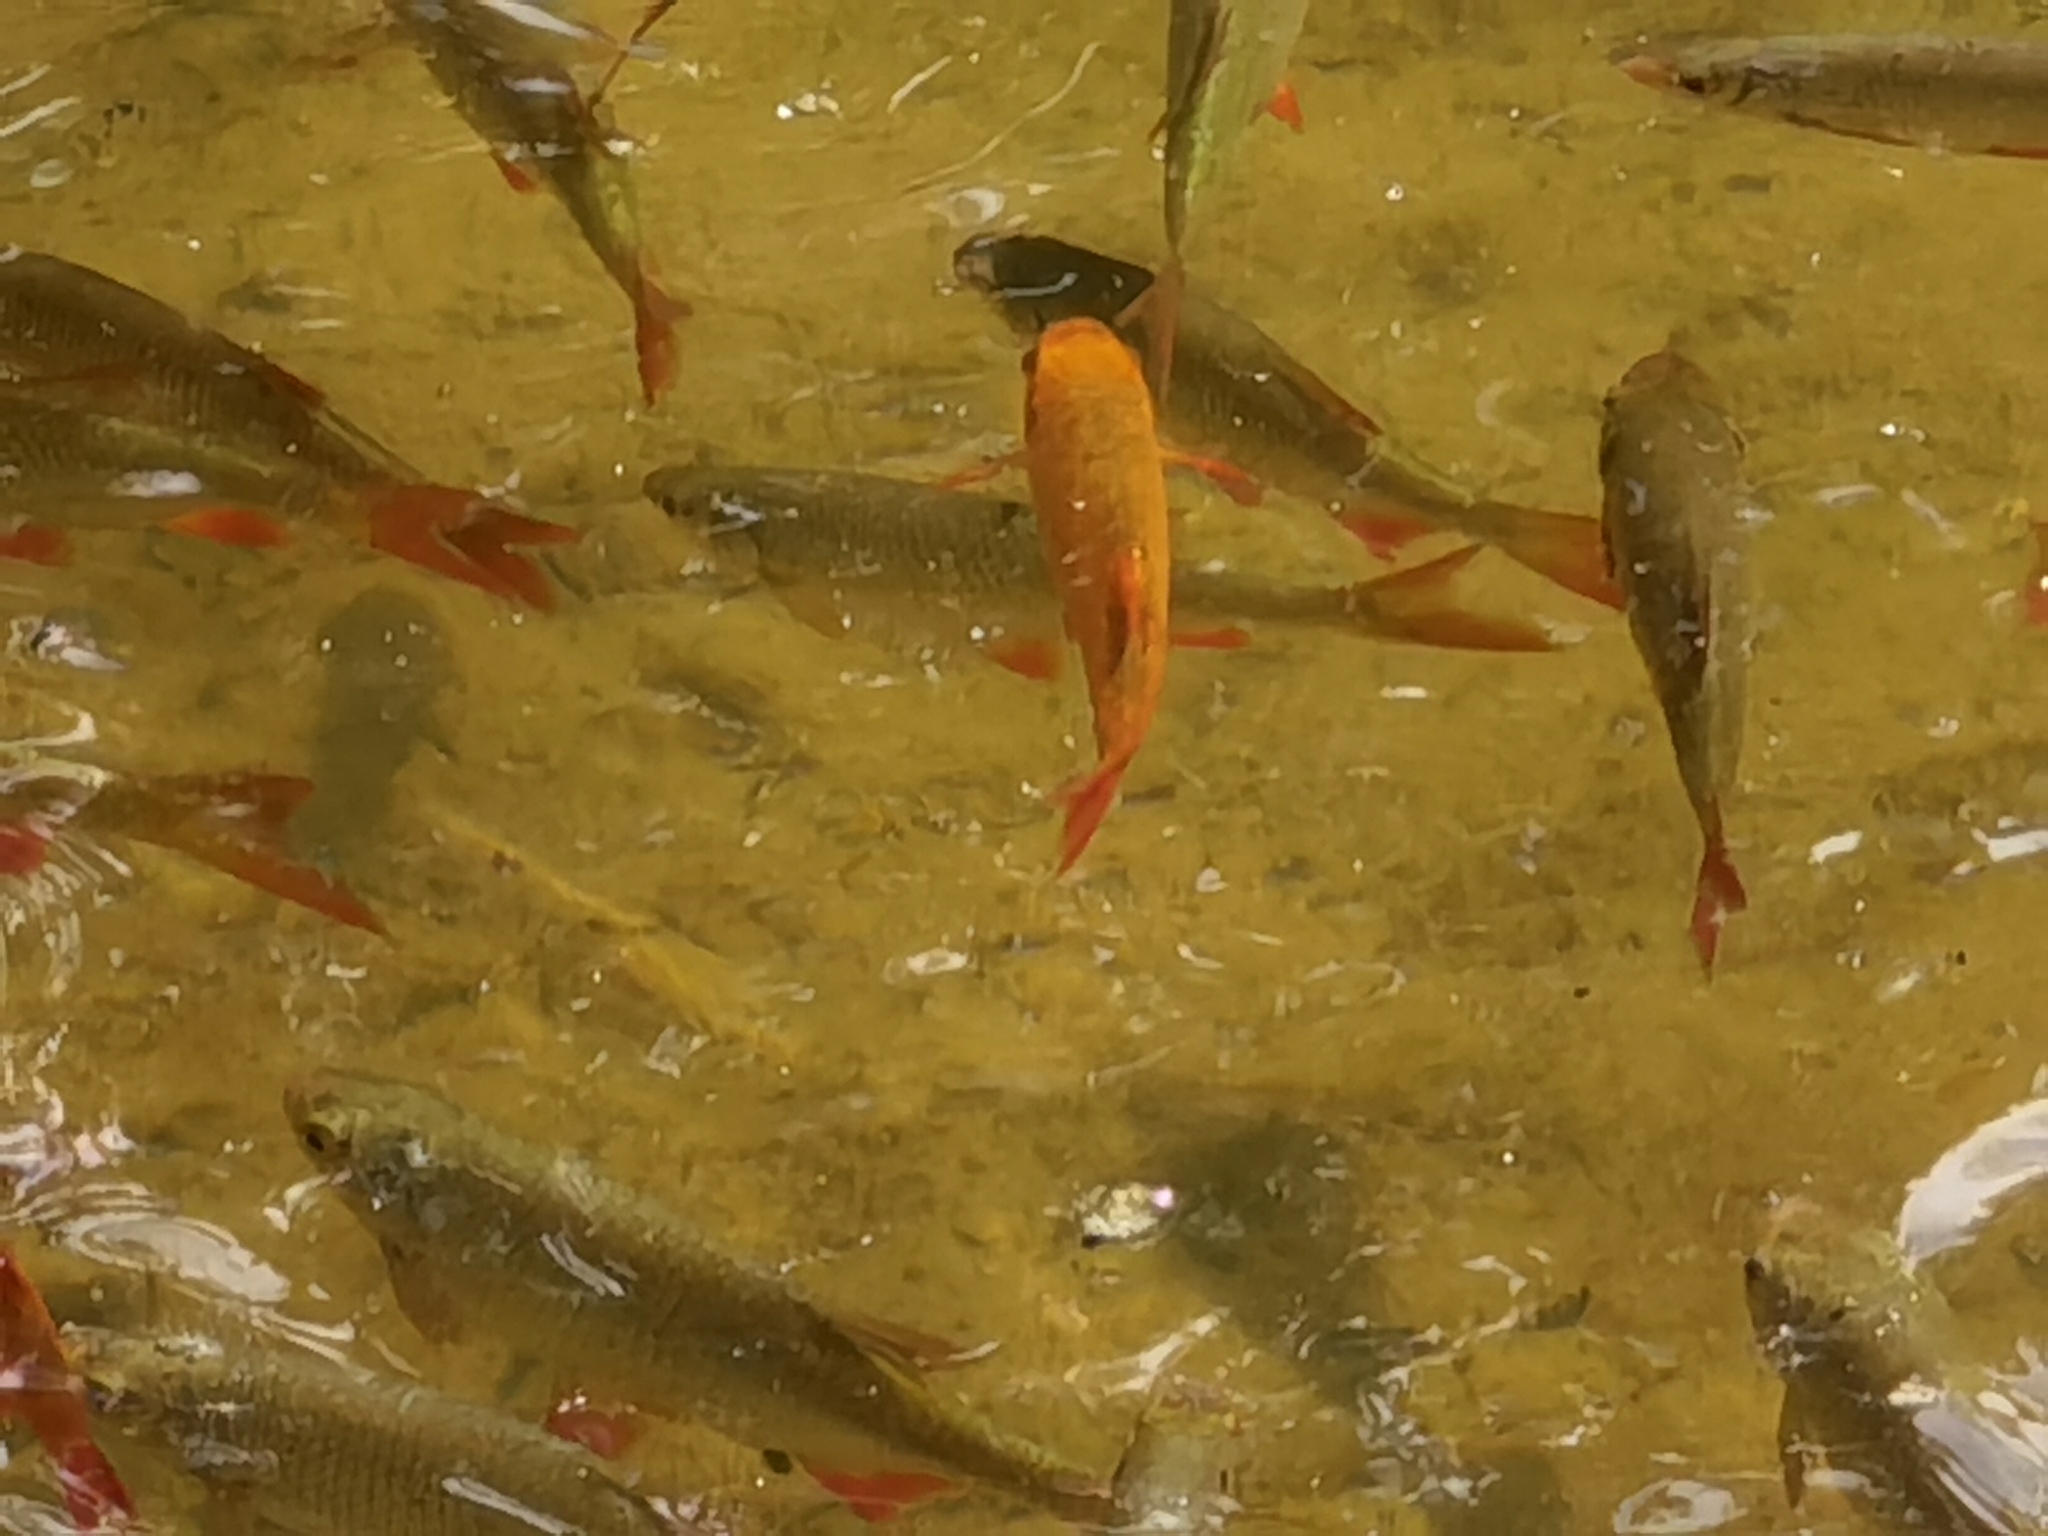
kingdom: Animalia
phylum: Chordata
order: Cypriniformes
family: Cyprinidae
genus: Scardinius
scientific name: Scardinius erythrophthalmus
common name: Rudd
